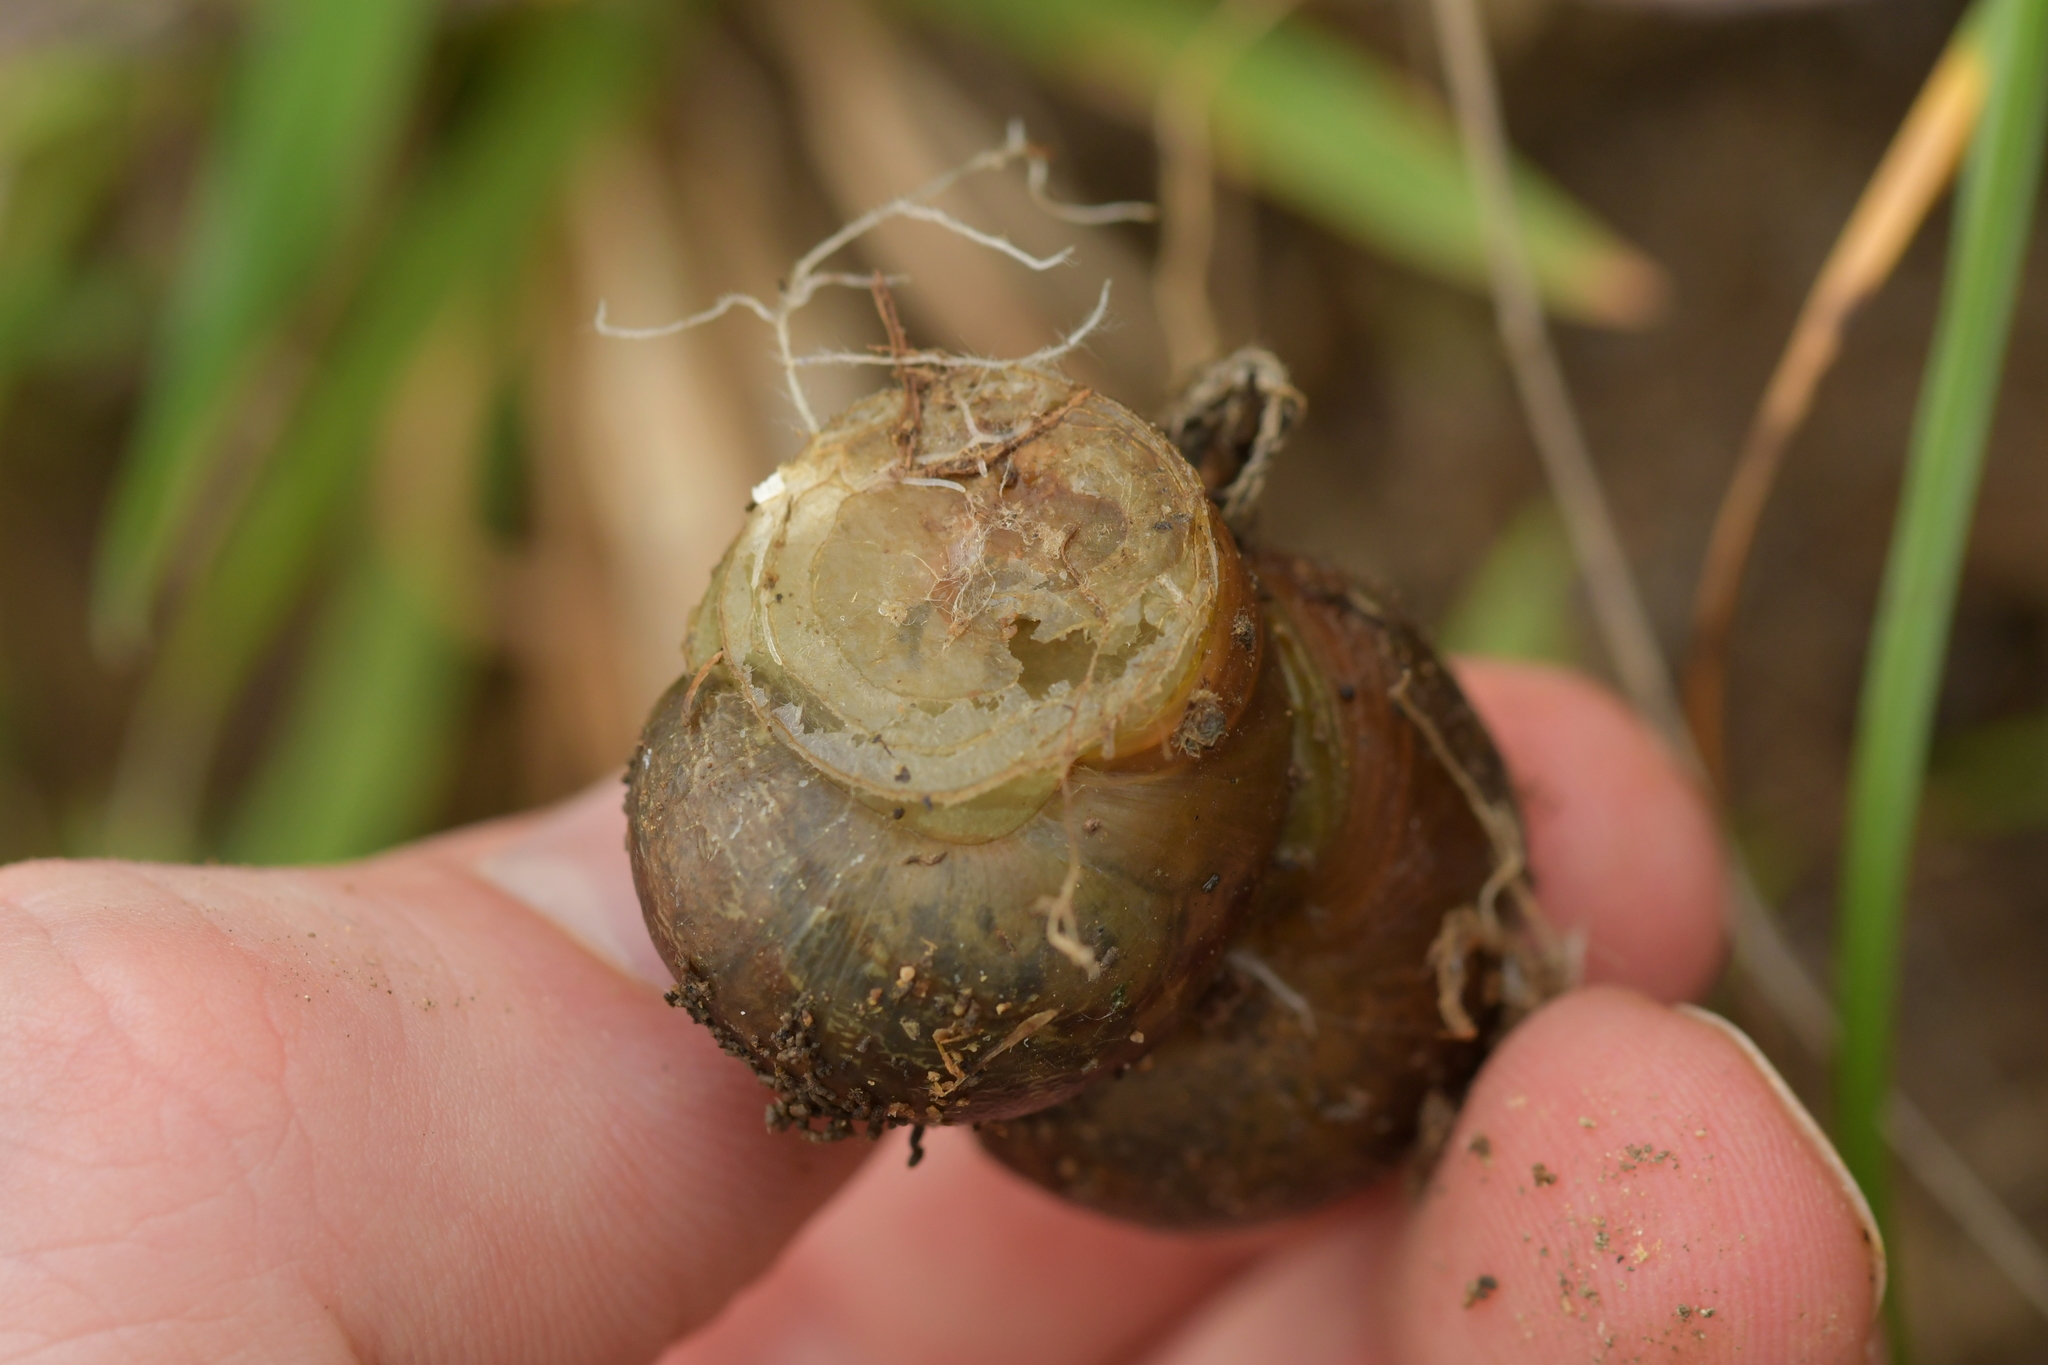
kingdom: Animalia
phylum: Mollusca
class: Gastropoda
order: Stylommatophora
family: Helicidae
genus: Cornu
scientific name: Cornu aspersum
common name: Brown garden snail
